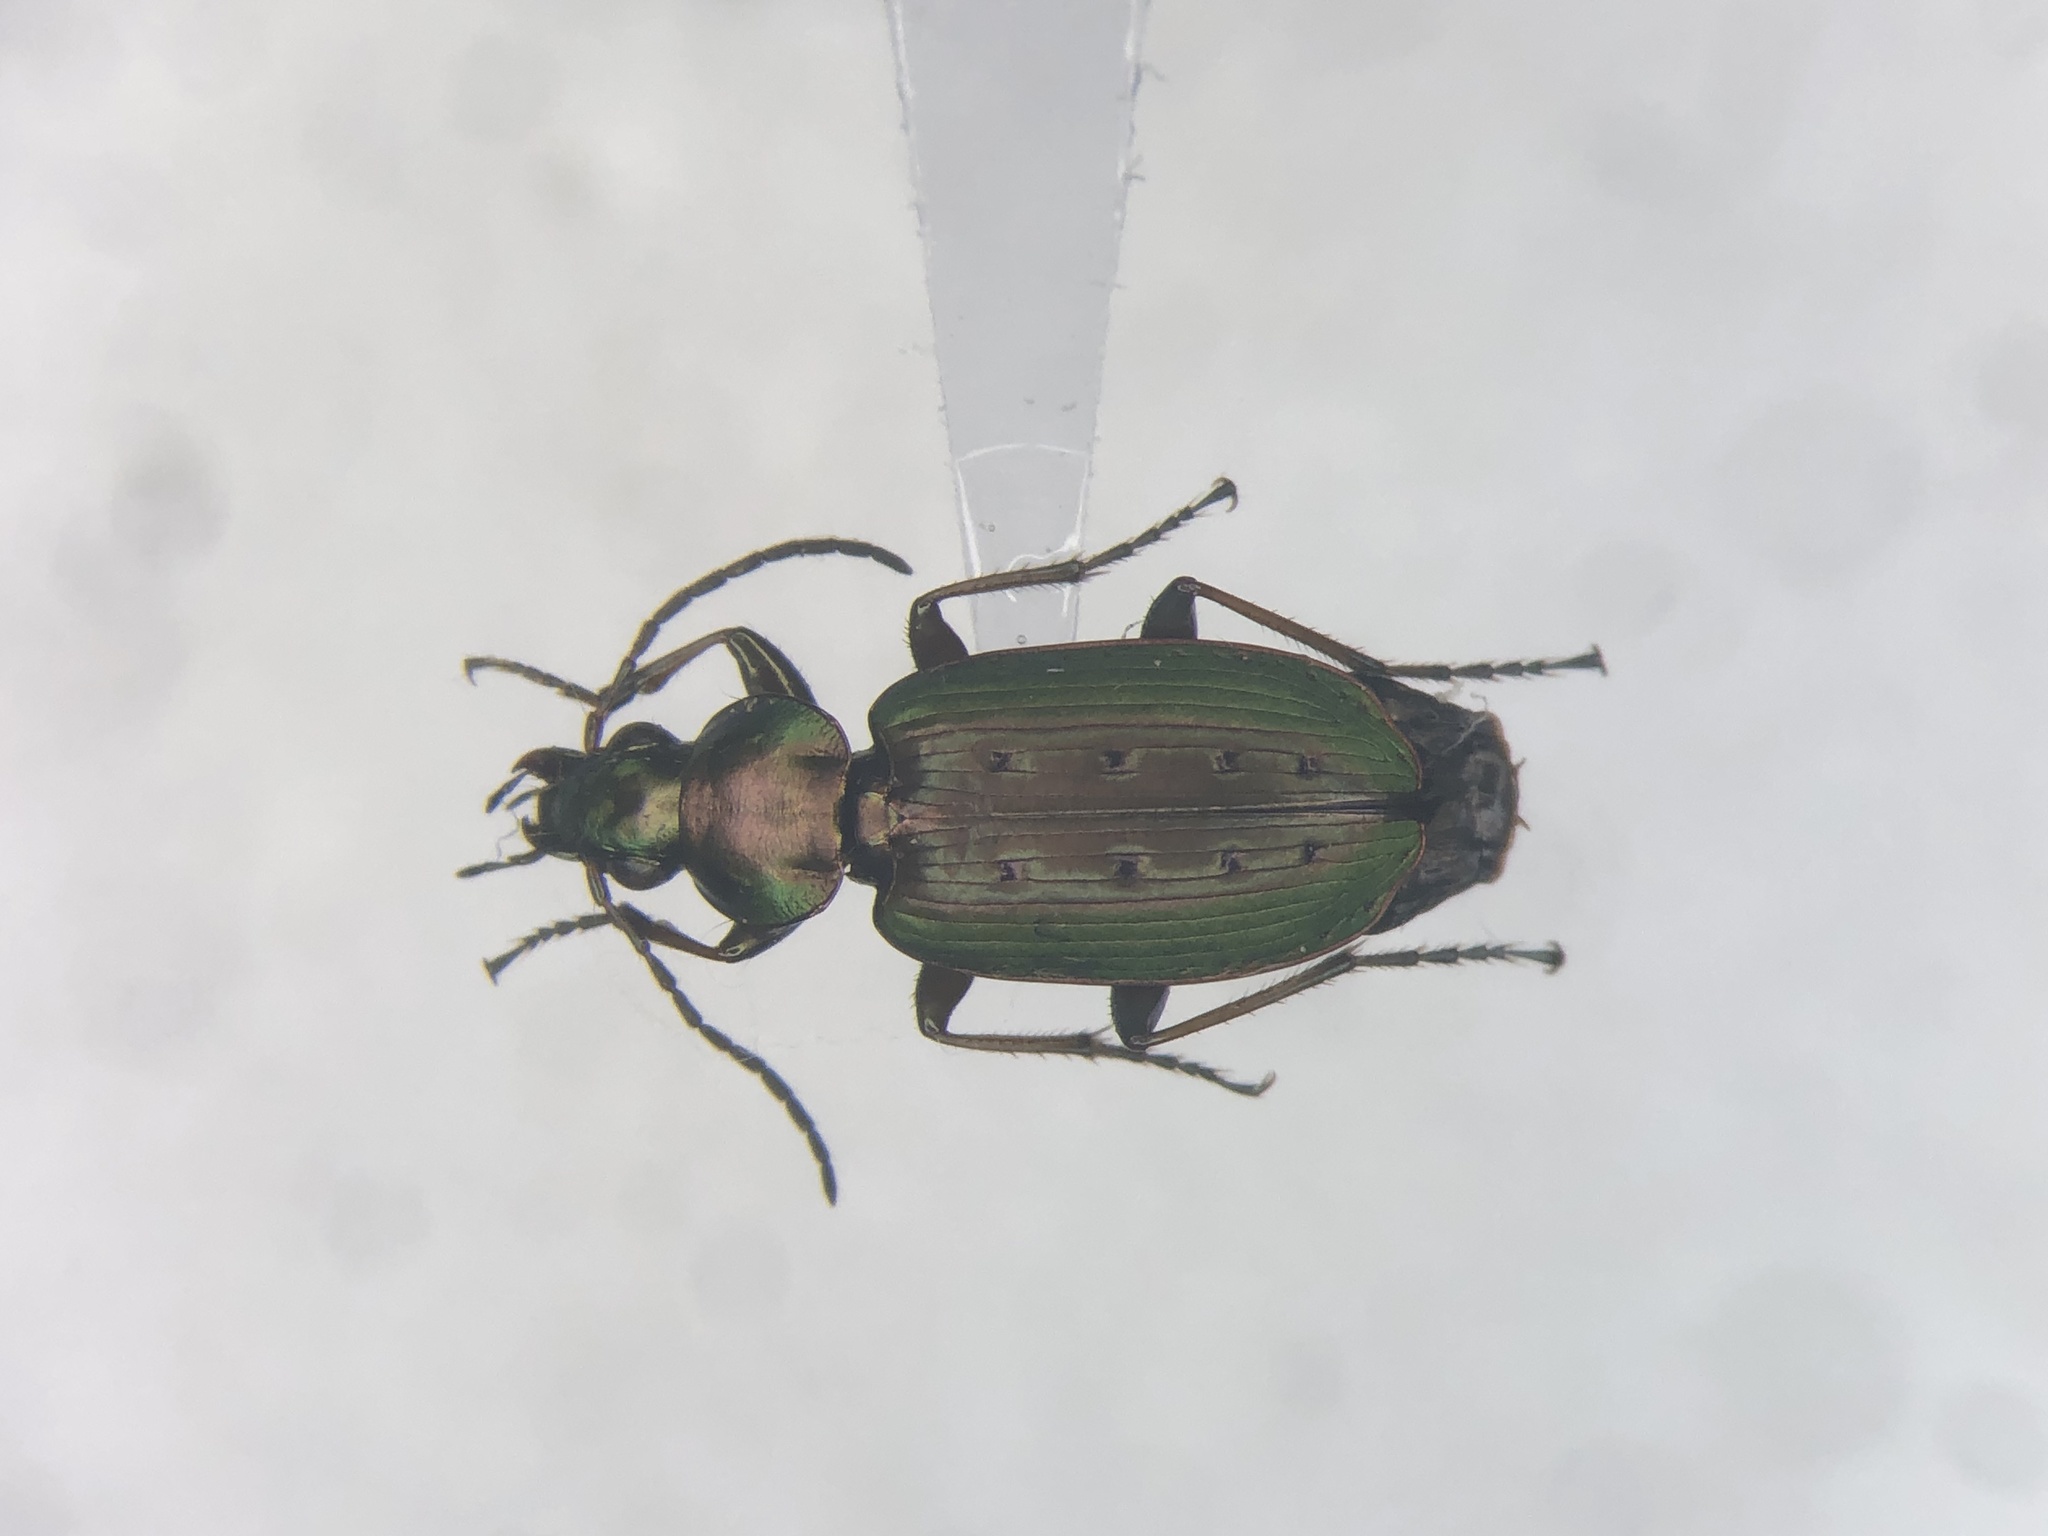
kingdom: Animalia
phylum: Arthropoda
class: Insecta
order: Coleoptera
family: Carabidae
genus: Agonum
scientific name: Agonum octopunctatum
